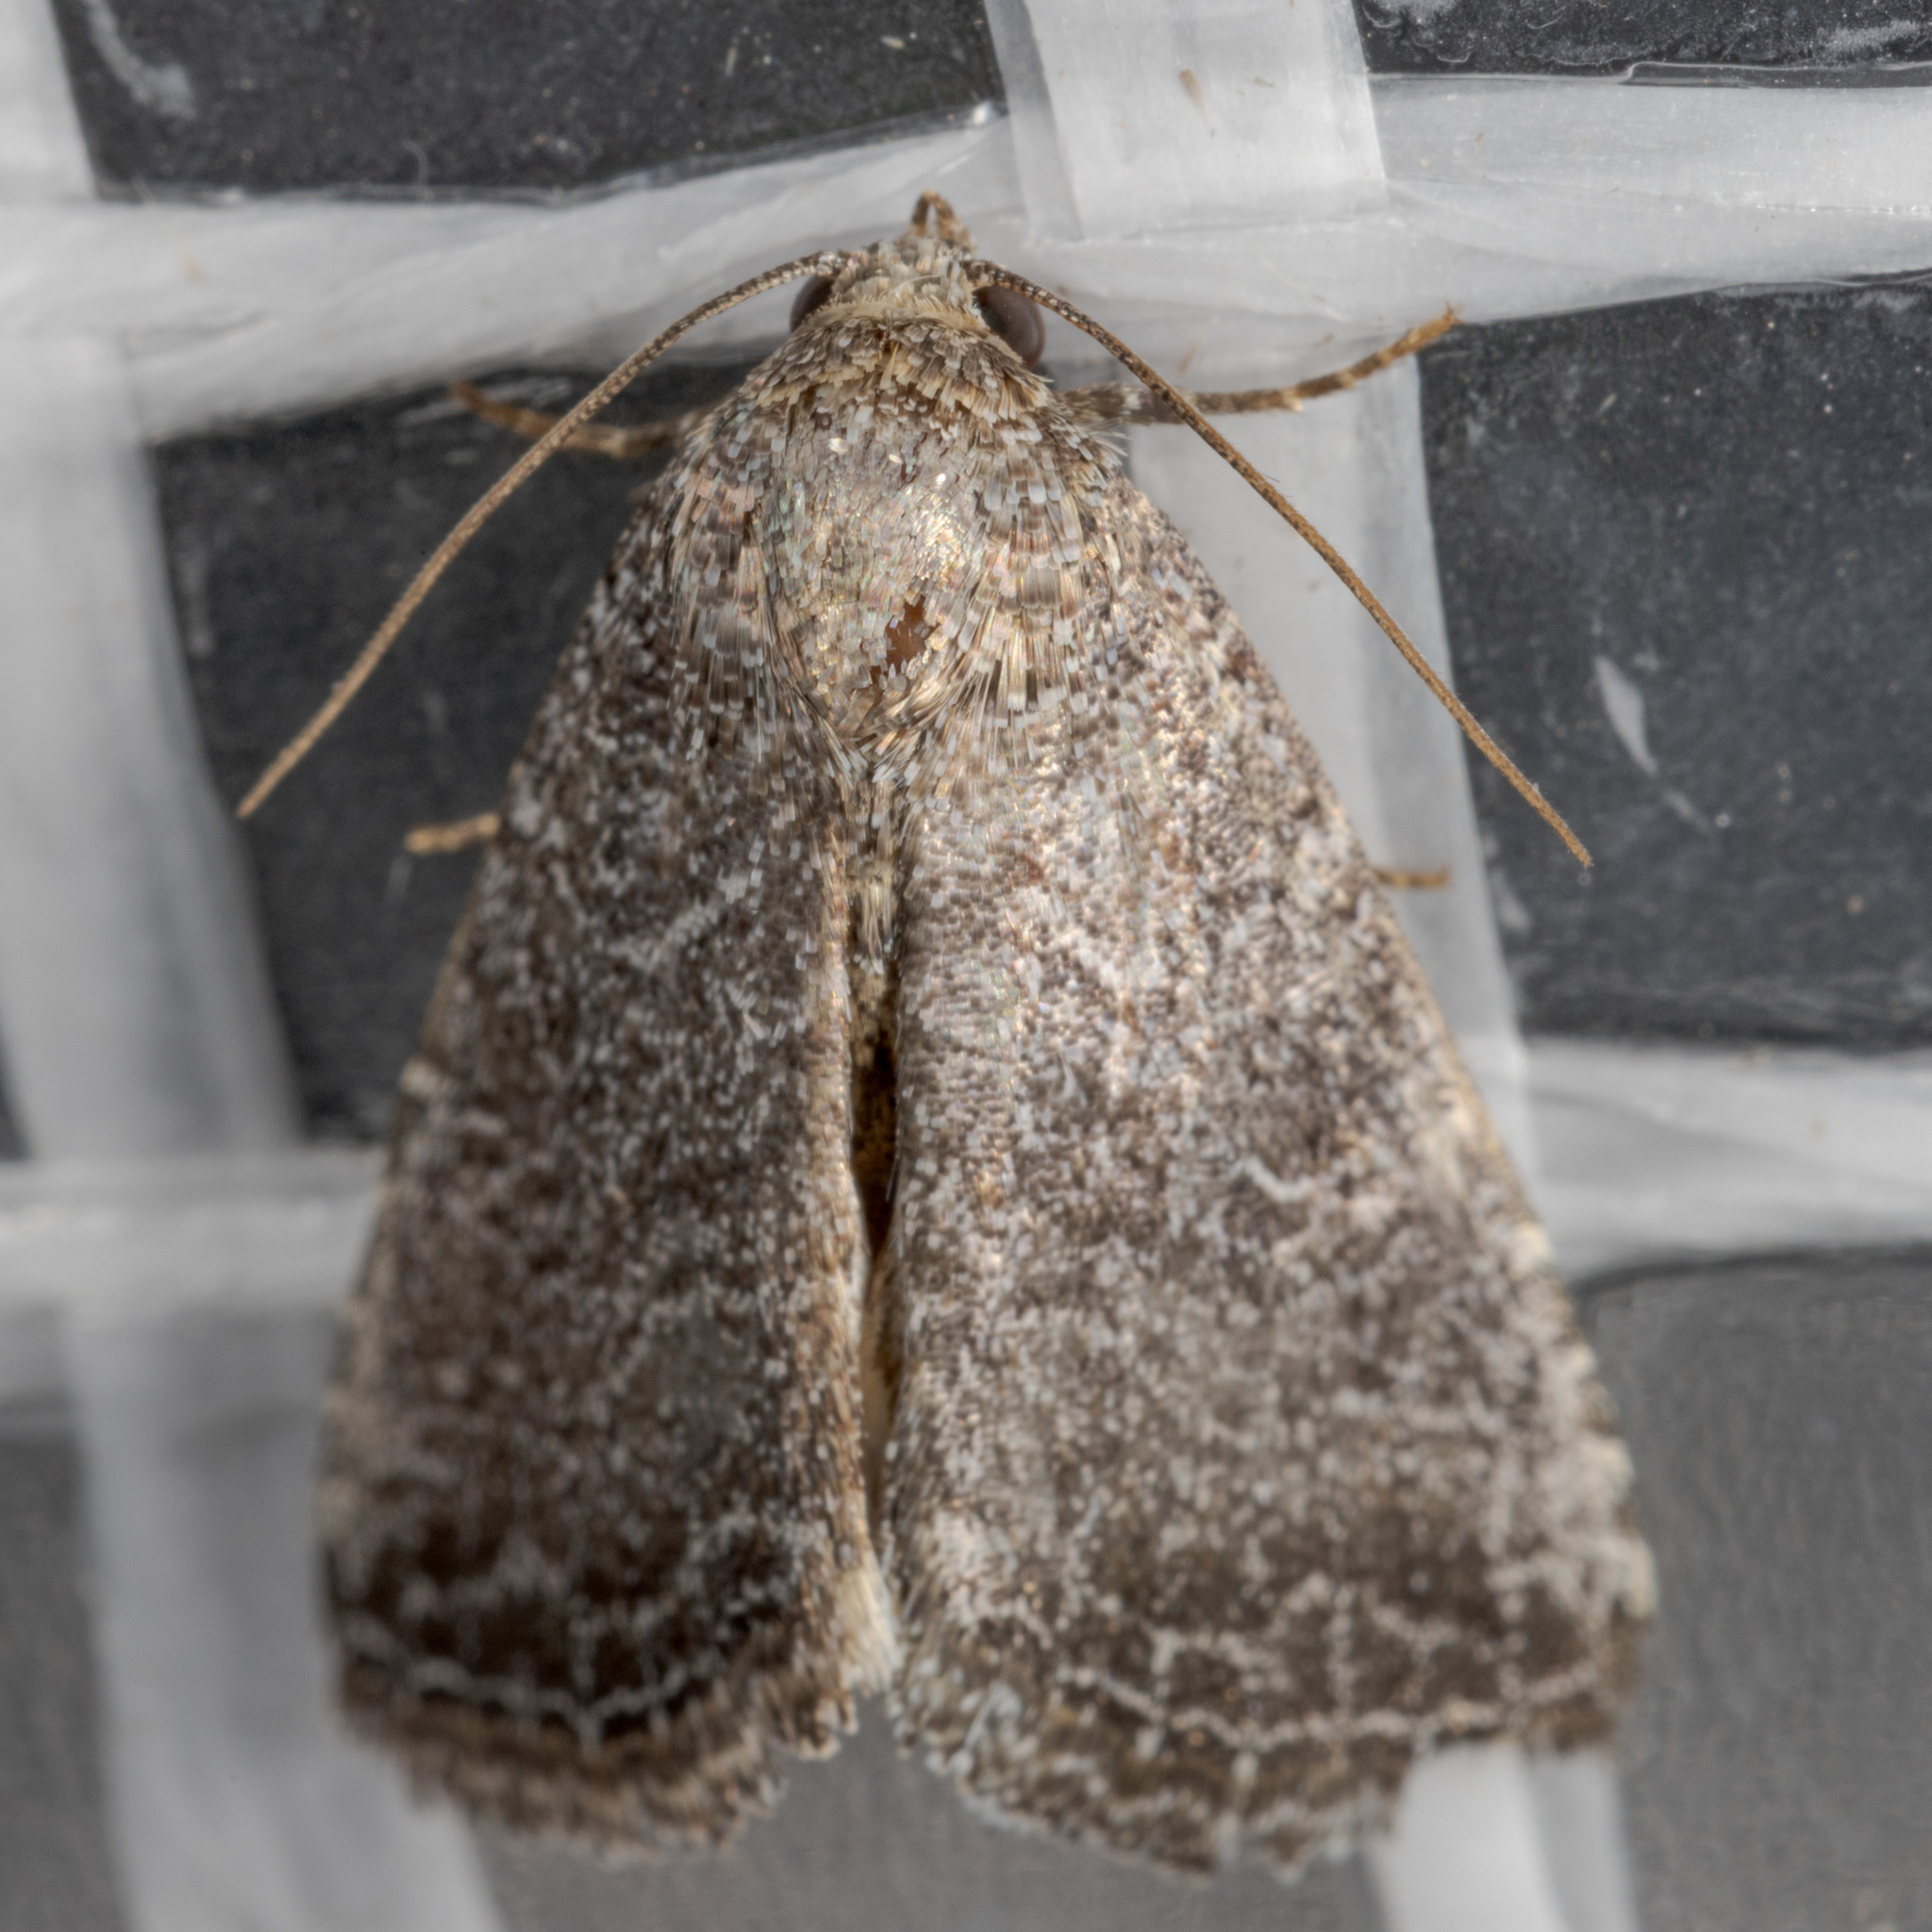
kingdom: Animalia
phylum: Arthropoda
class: Insecta
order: Lepidoptera
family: Noctuidae
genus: Ogdoconta
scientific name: Ogdoconta tacna
